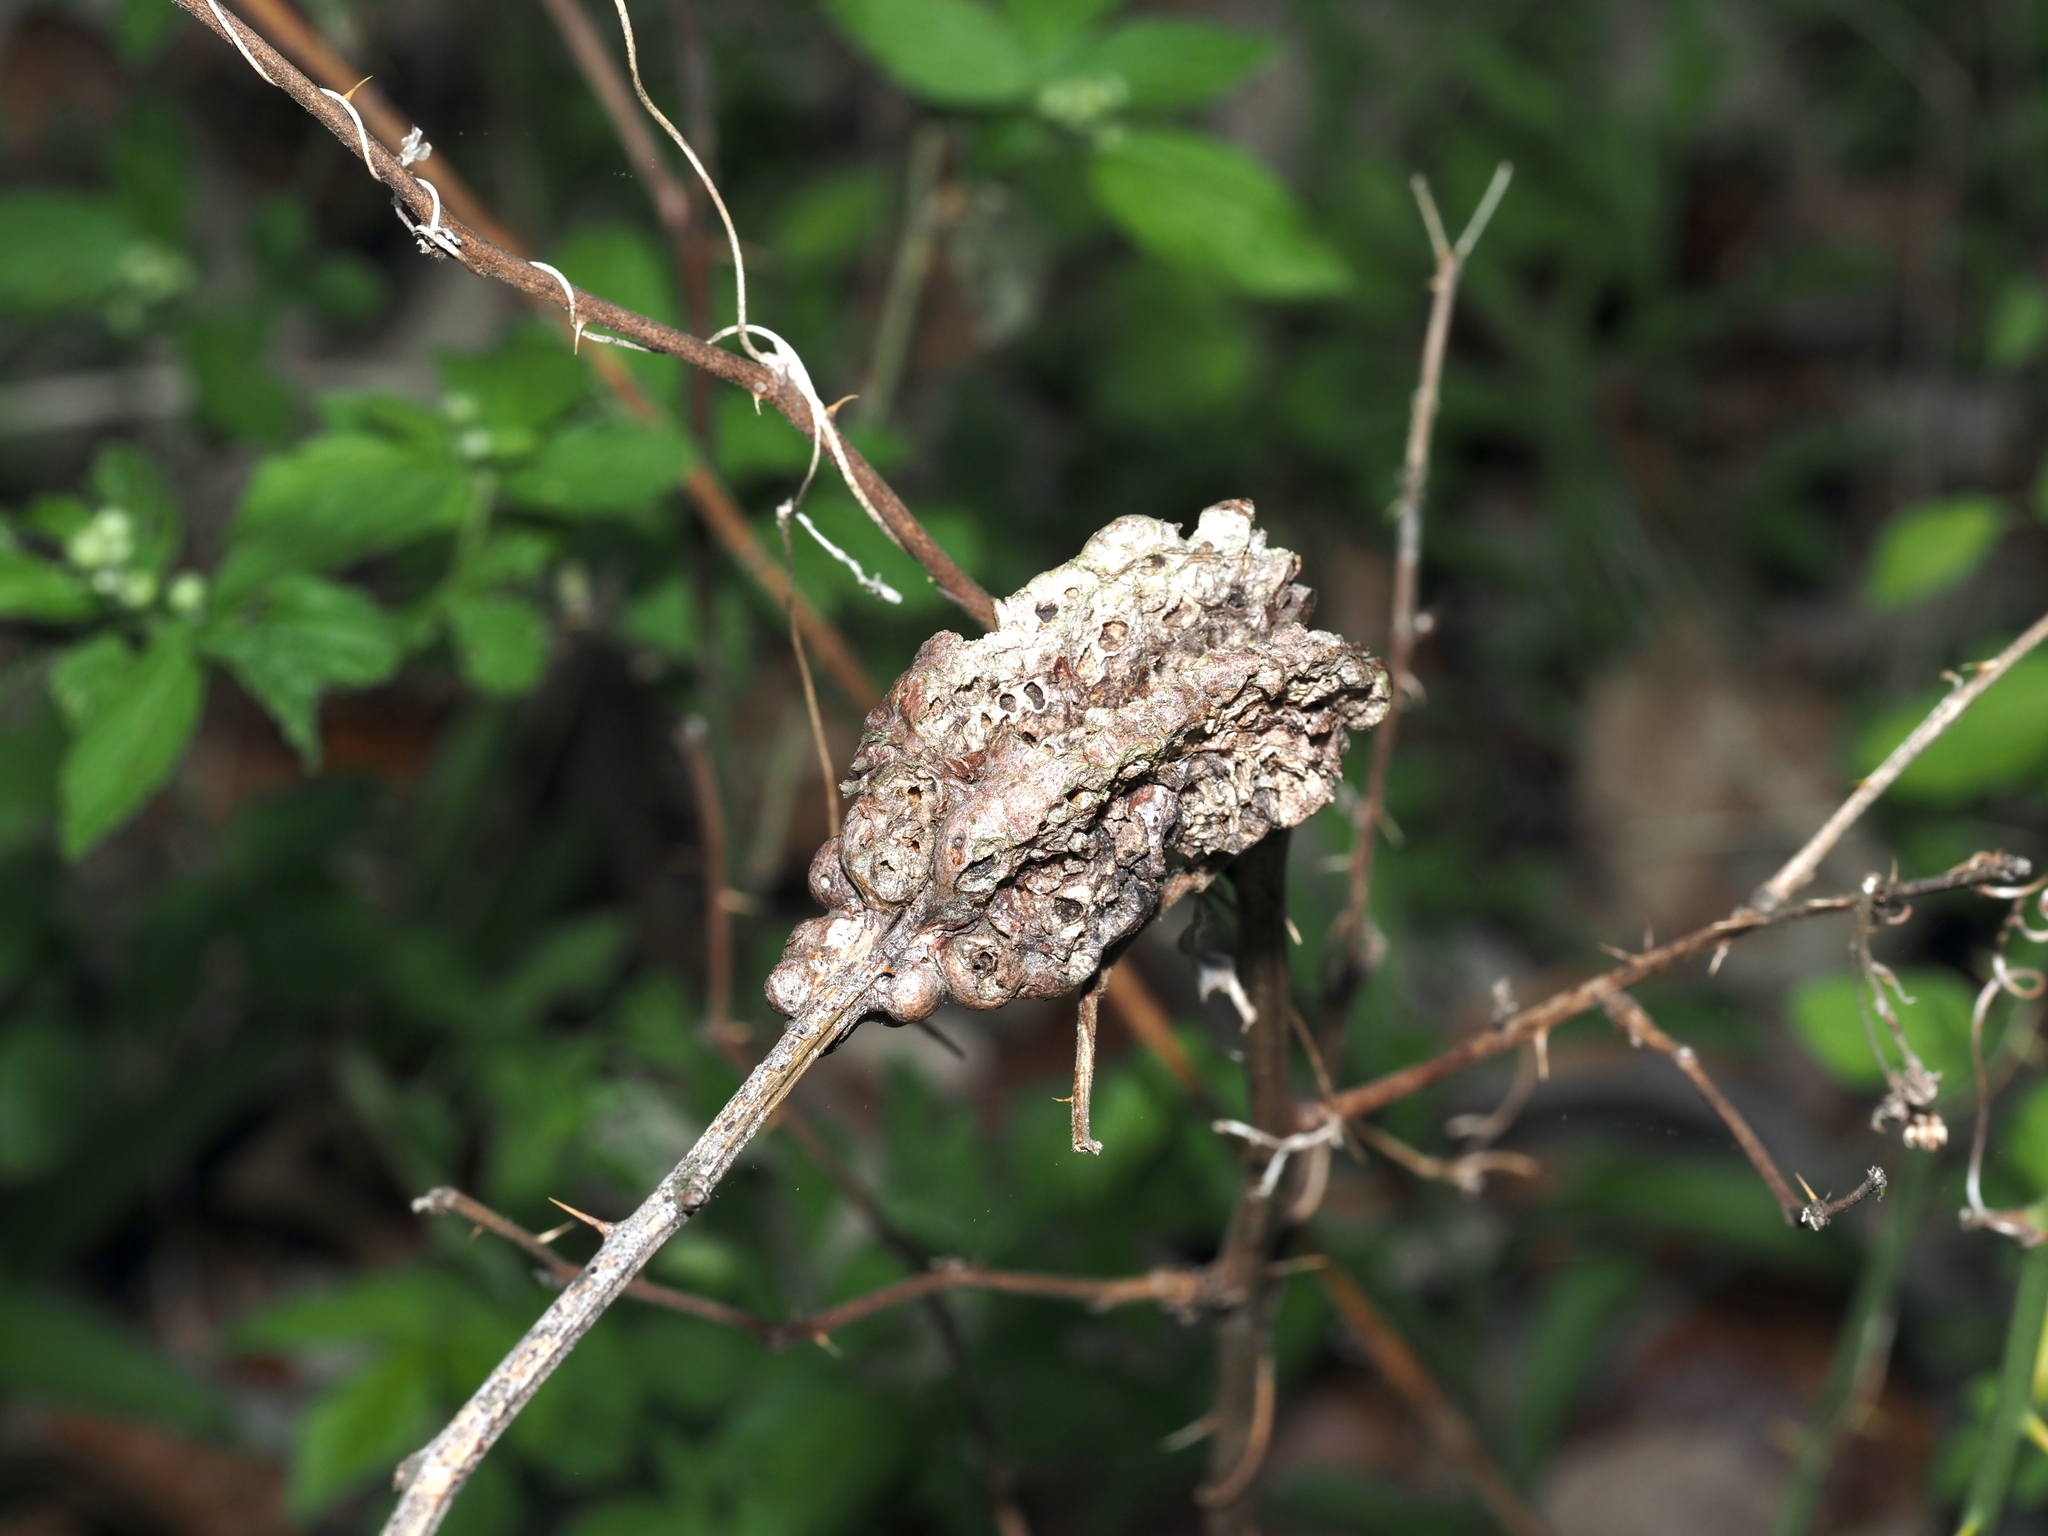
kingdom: Animalia
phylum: Arthropoda
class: Insecta
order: Hymenoptera
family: Cynipidae
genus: Diastrophus
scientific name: Diastrophus
